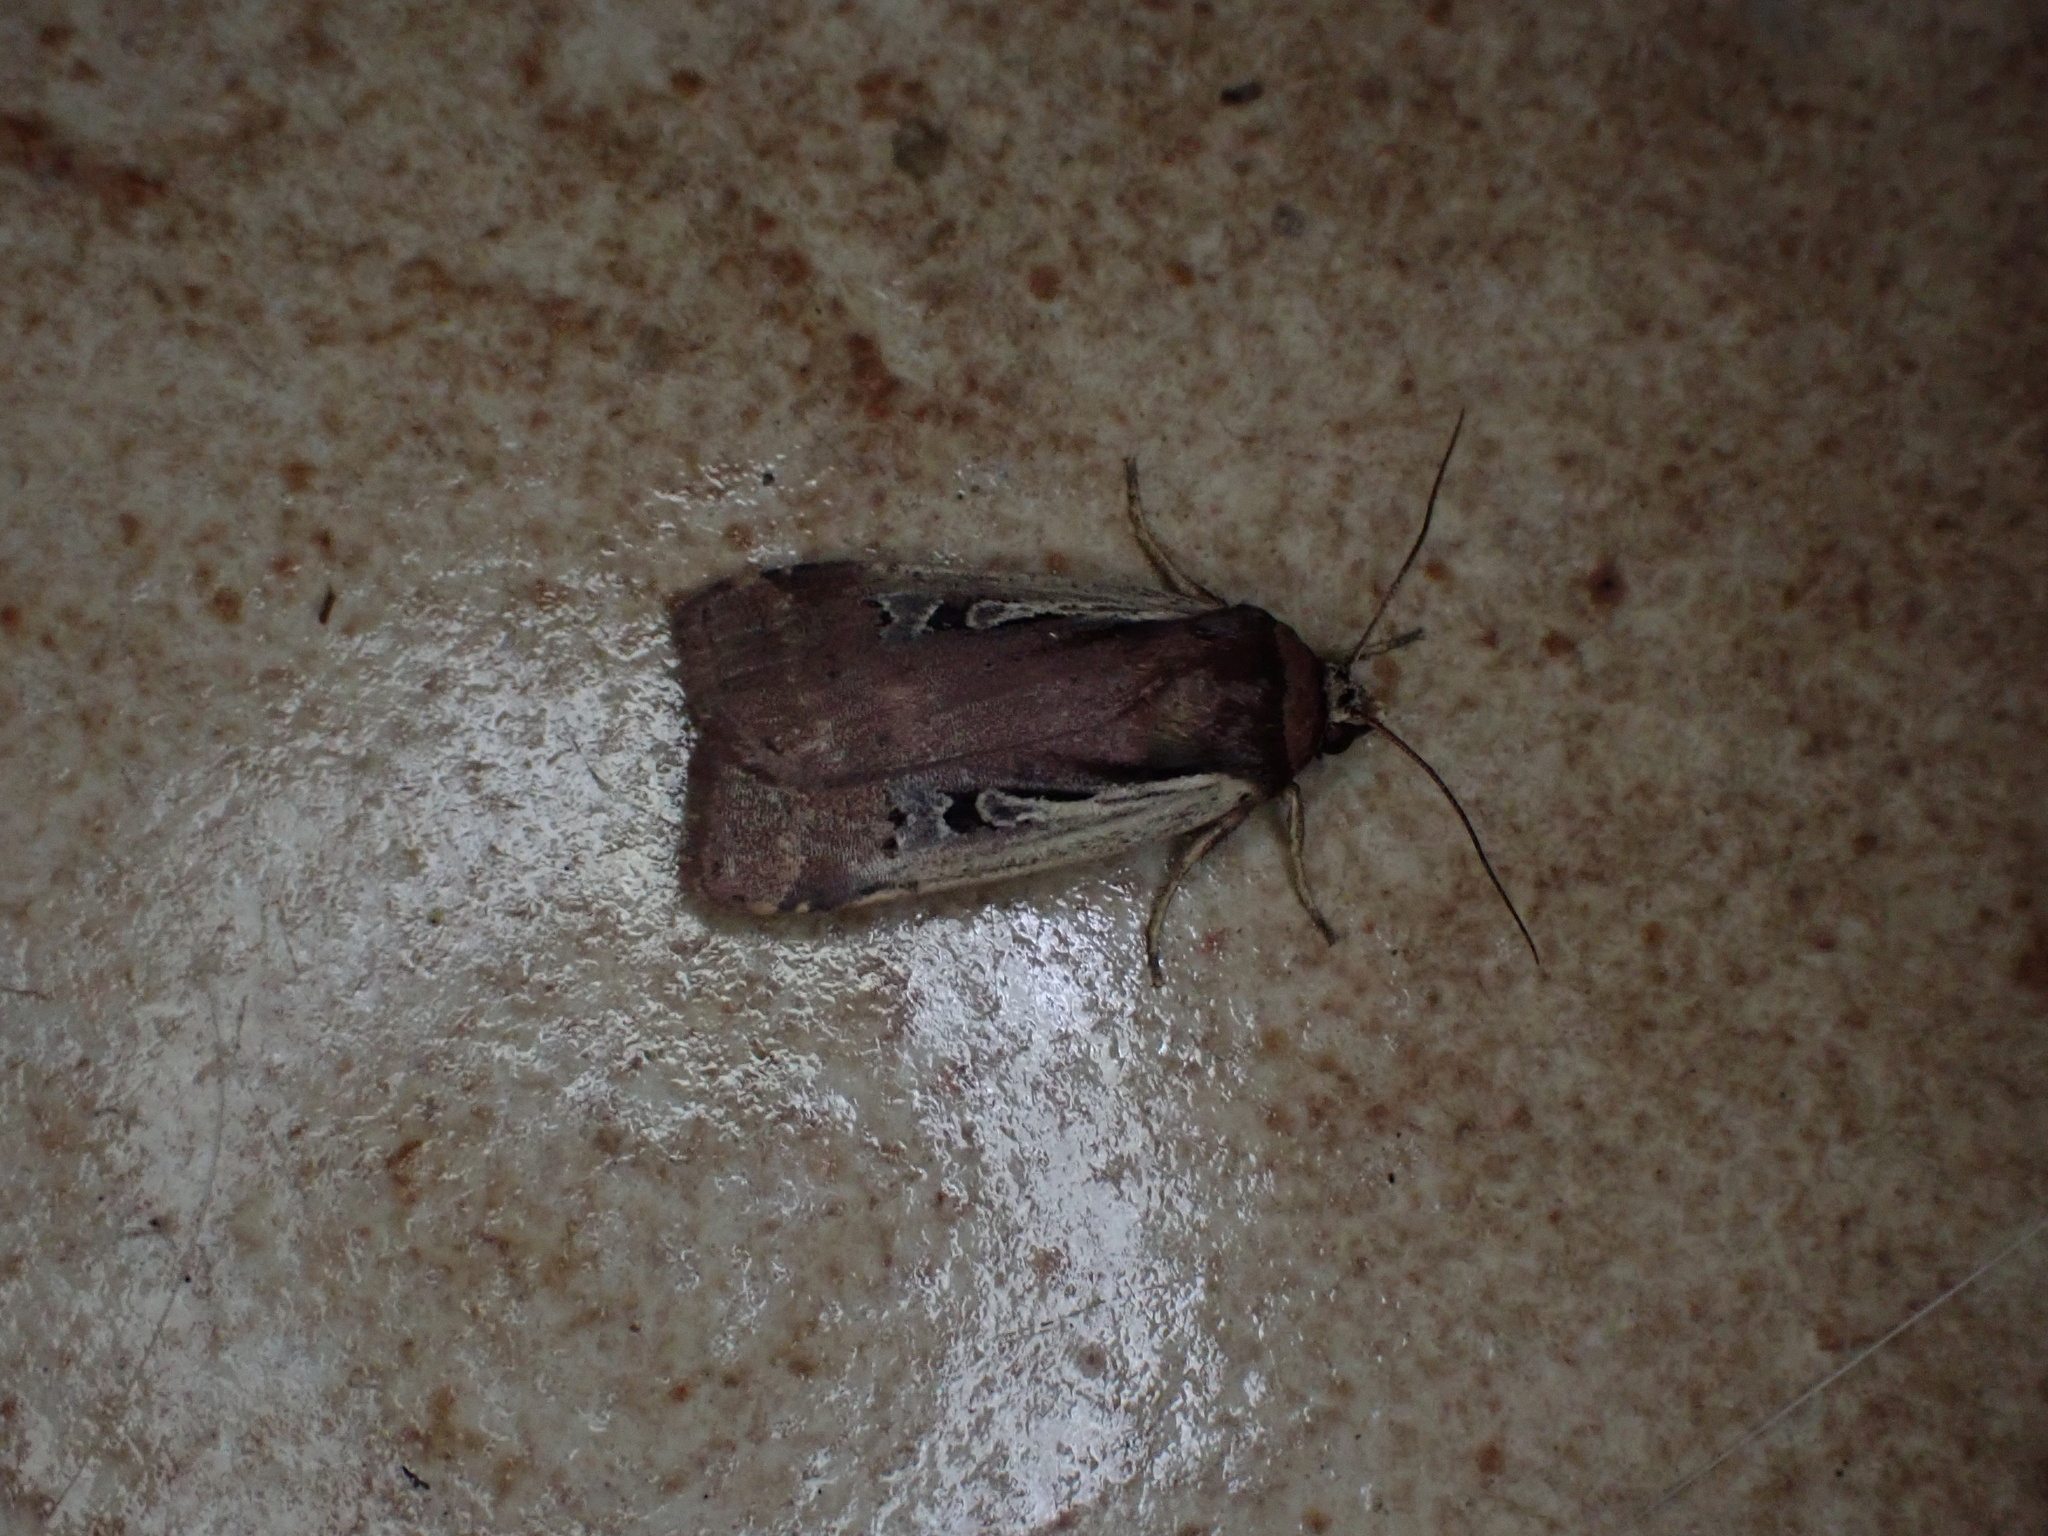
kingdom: Animalia
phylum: Arthropoda
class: Insecta
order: Lepidoptera
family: Noctuidae
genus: Ochropleura
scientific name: Ochropleura implecta
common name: Flame-shouldered dart
